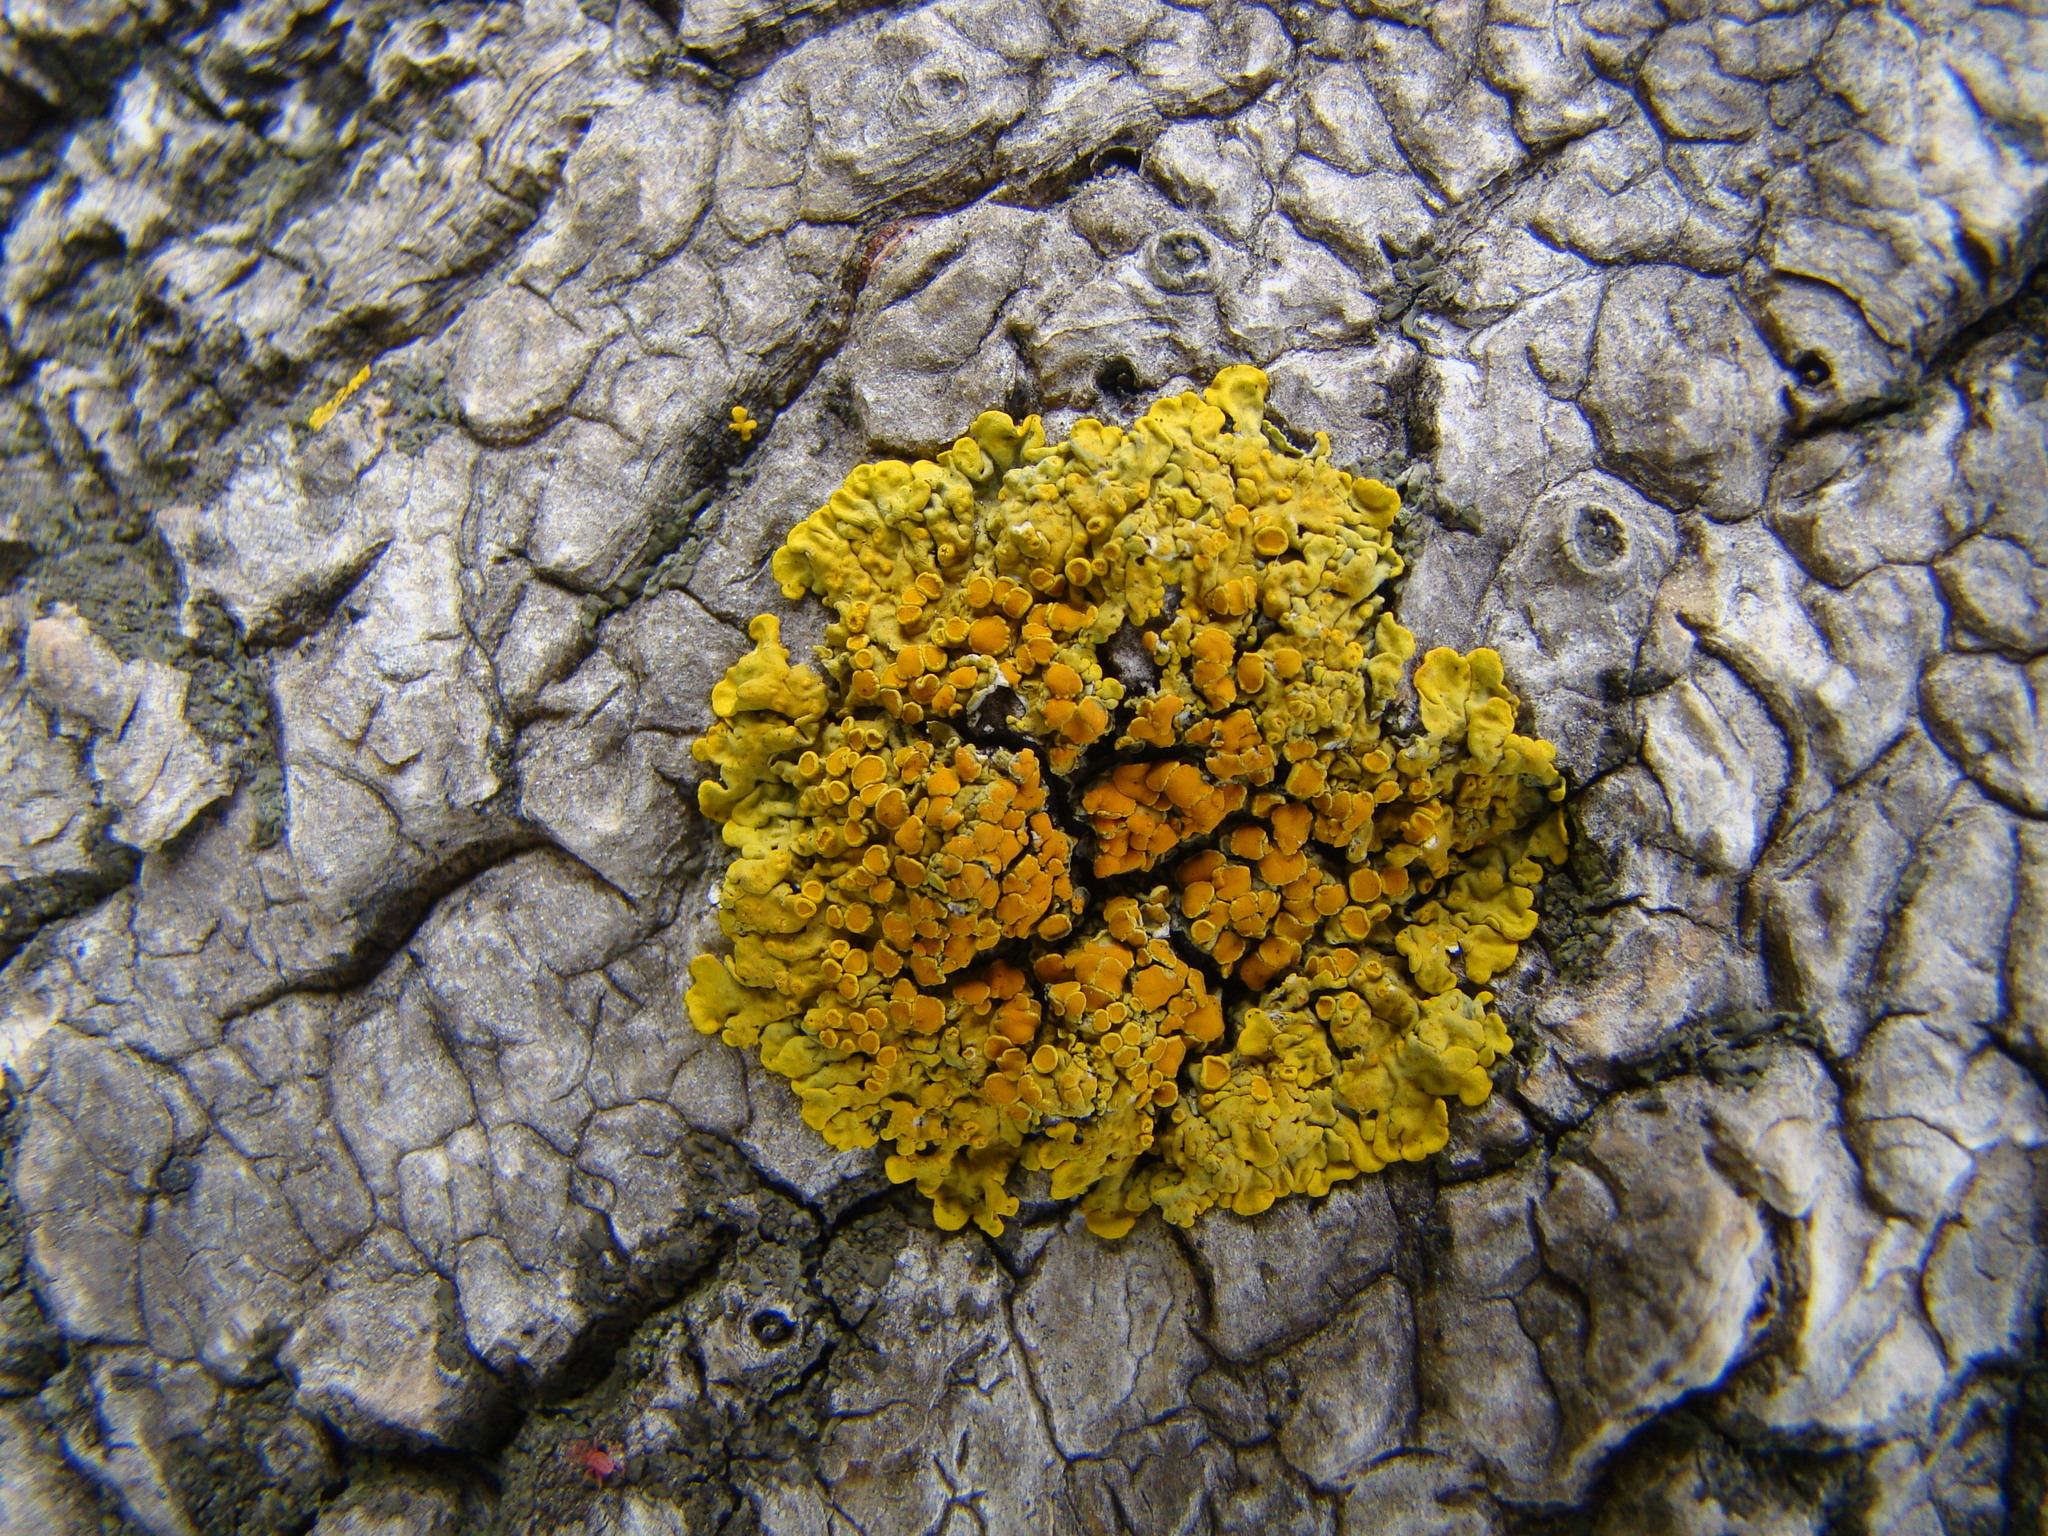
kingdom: Fungi
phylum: Ascomycota
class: Lecanoromycetes
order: Teloschistales
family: Teloschistaceae
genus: Xanthoria
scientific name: Xanthoria parietina
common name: Common orange lichen
